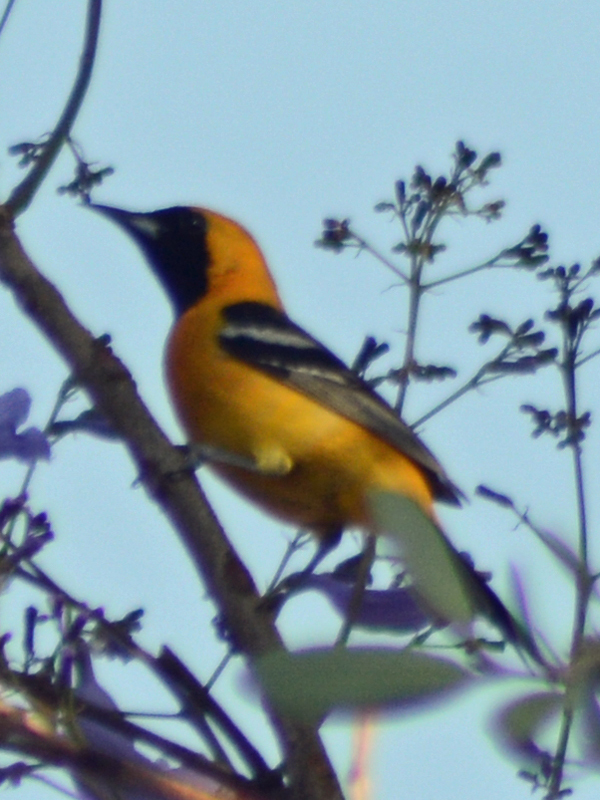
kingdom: Animalia
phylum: Chordata
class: Aves
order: Passeriformes
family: Icteridae
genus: Icterus
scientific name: Icterus cucullatus
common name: Hooded oriole
